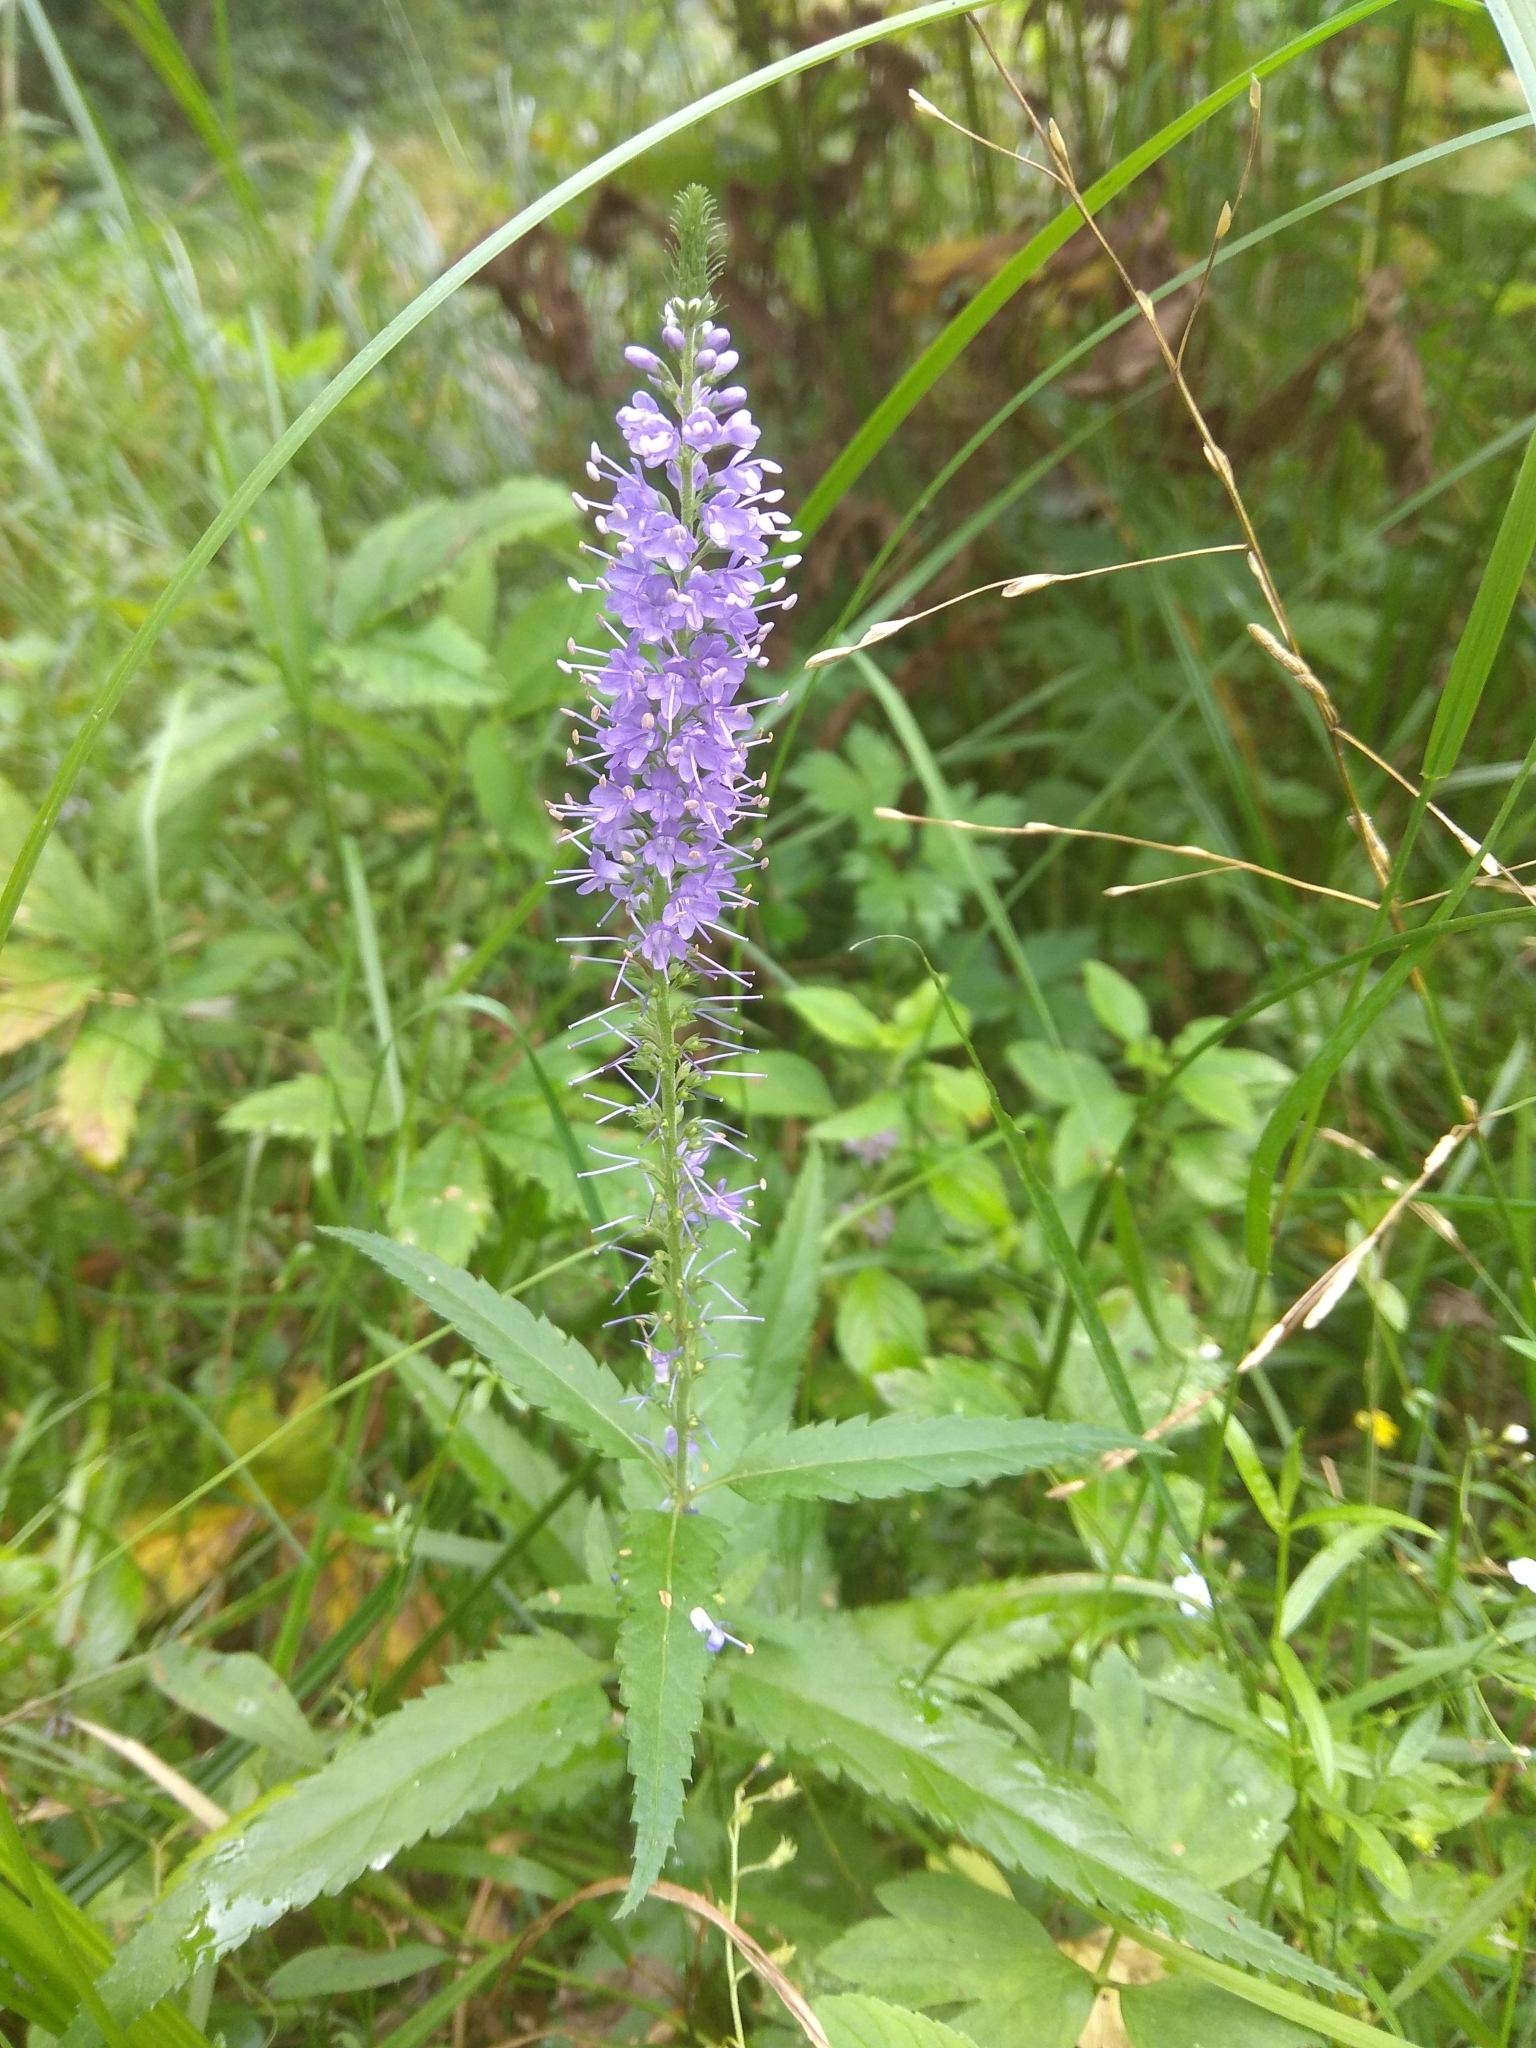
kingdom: Plantae
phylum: Tracheophyta
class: Magnoliopsida
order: Lamiales
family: Plantaginaceae
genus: Veronica
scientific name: Veronica longifolia
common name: Garden speedwell
